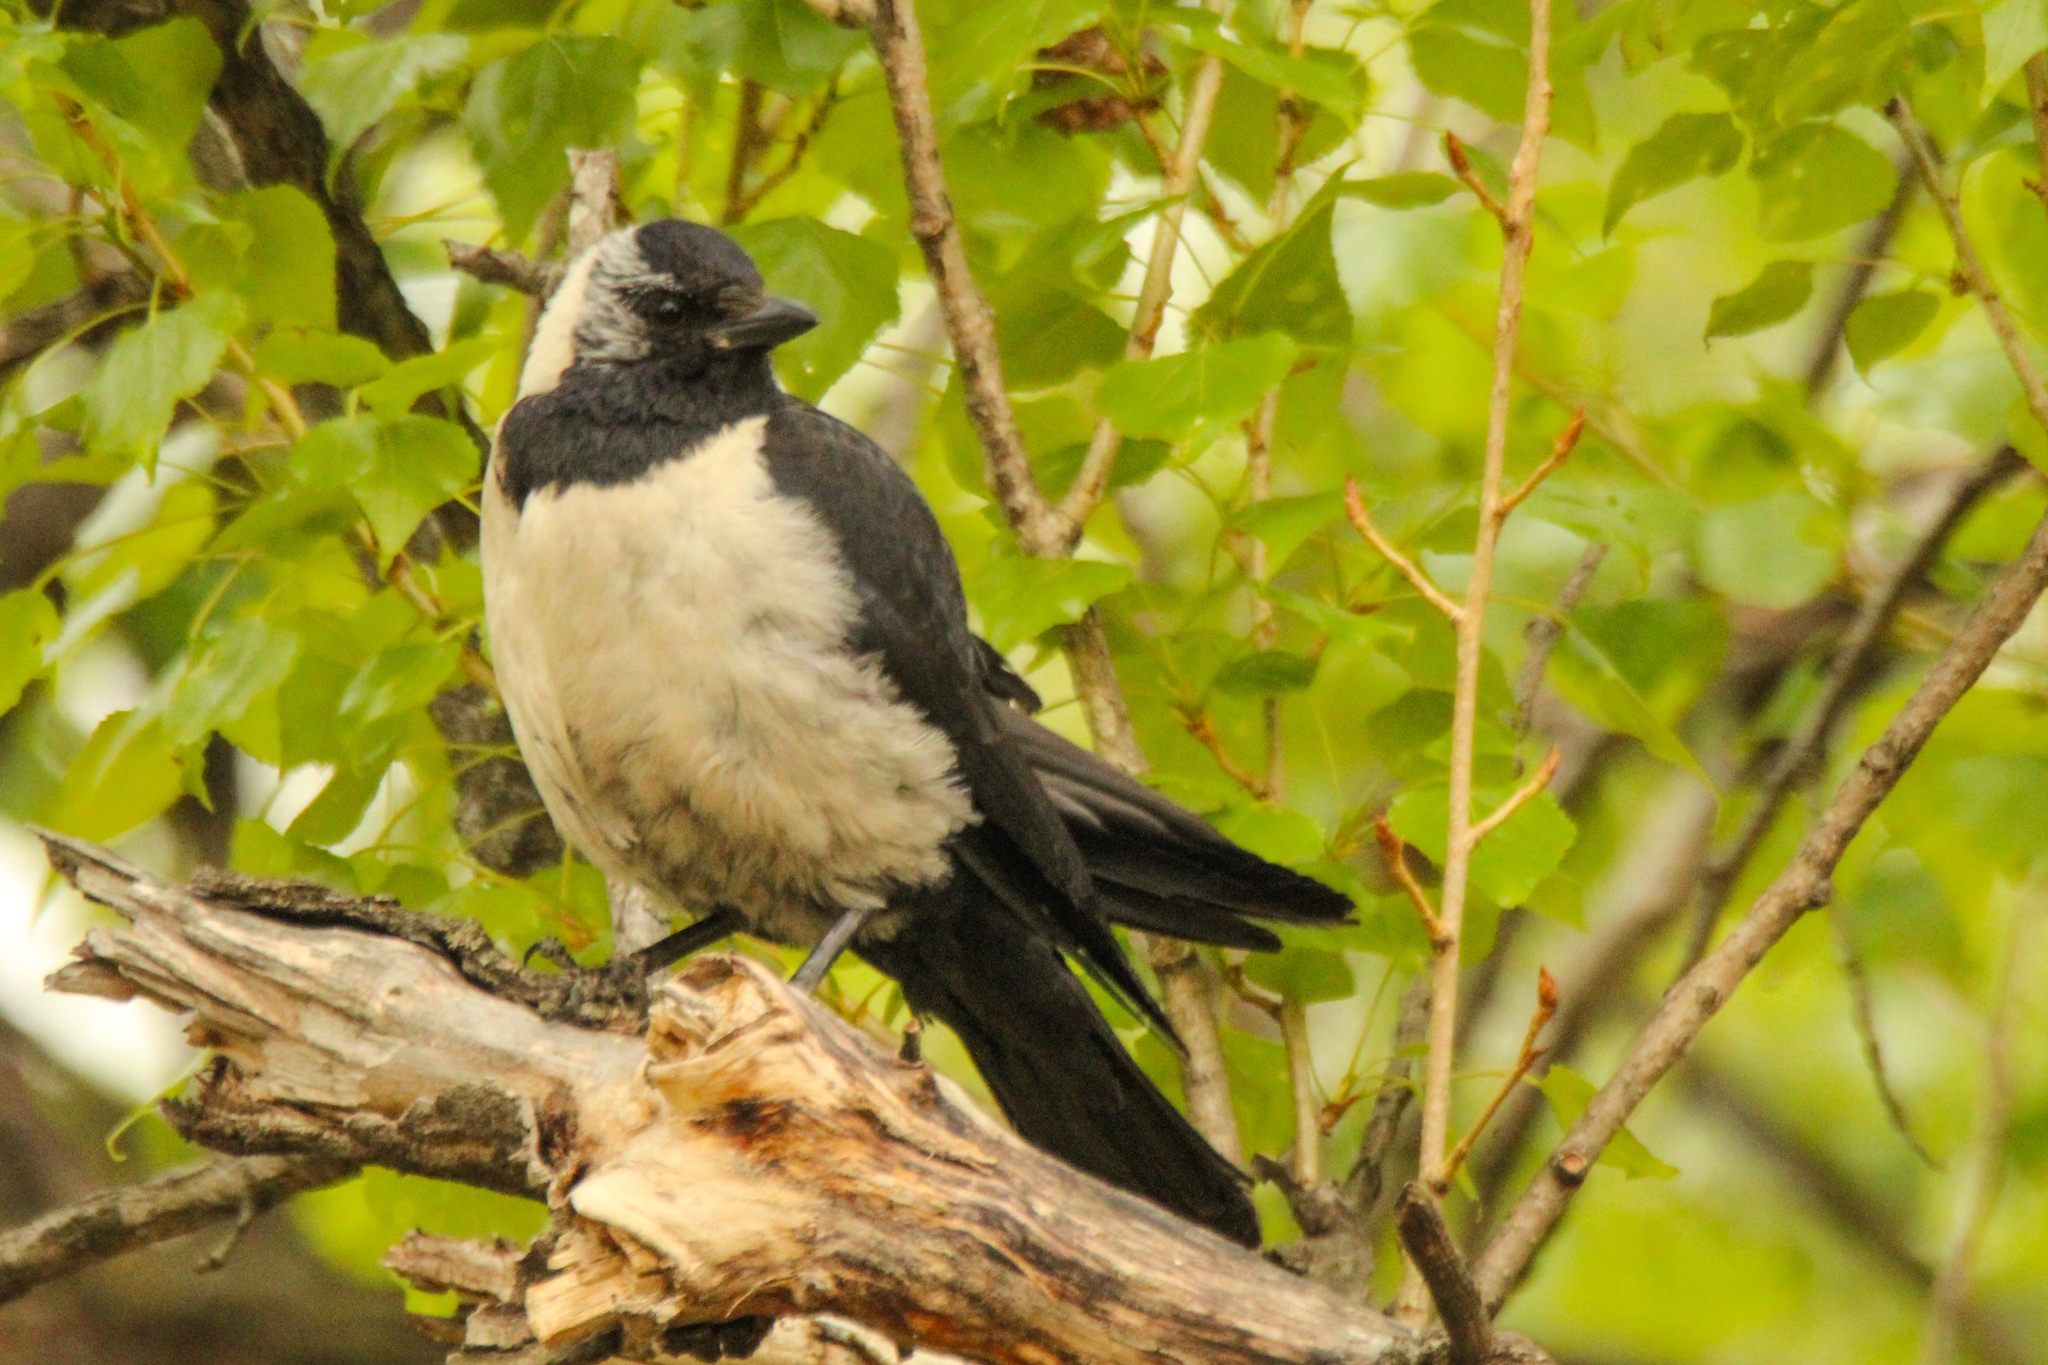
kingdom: Animalia
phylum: Chordata
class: Aves
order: Passeriformes
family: Corvidae
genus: Coloeus
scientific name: Coloeus dauuricus
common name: Daurian jackdaw
